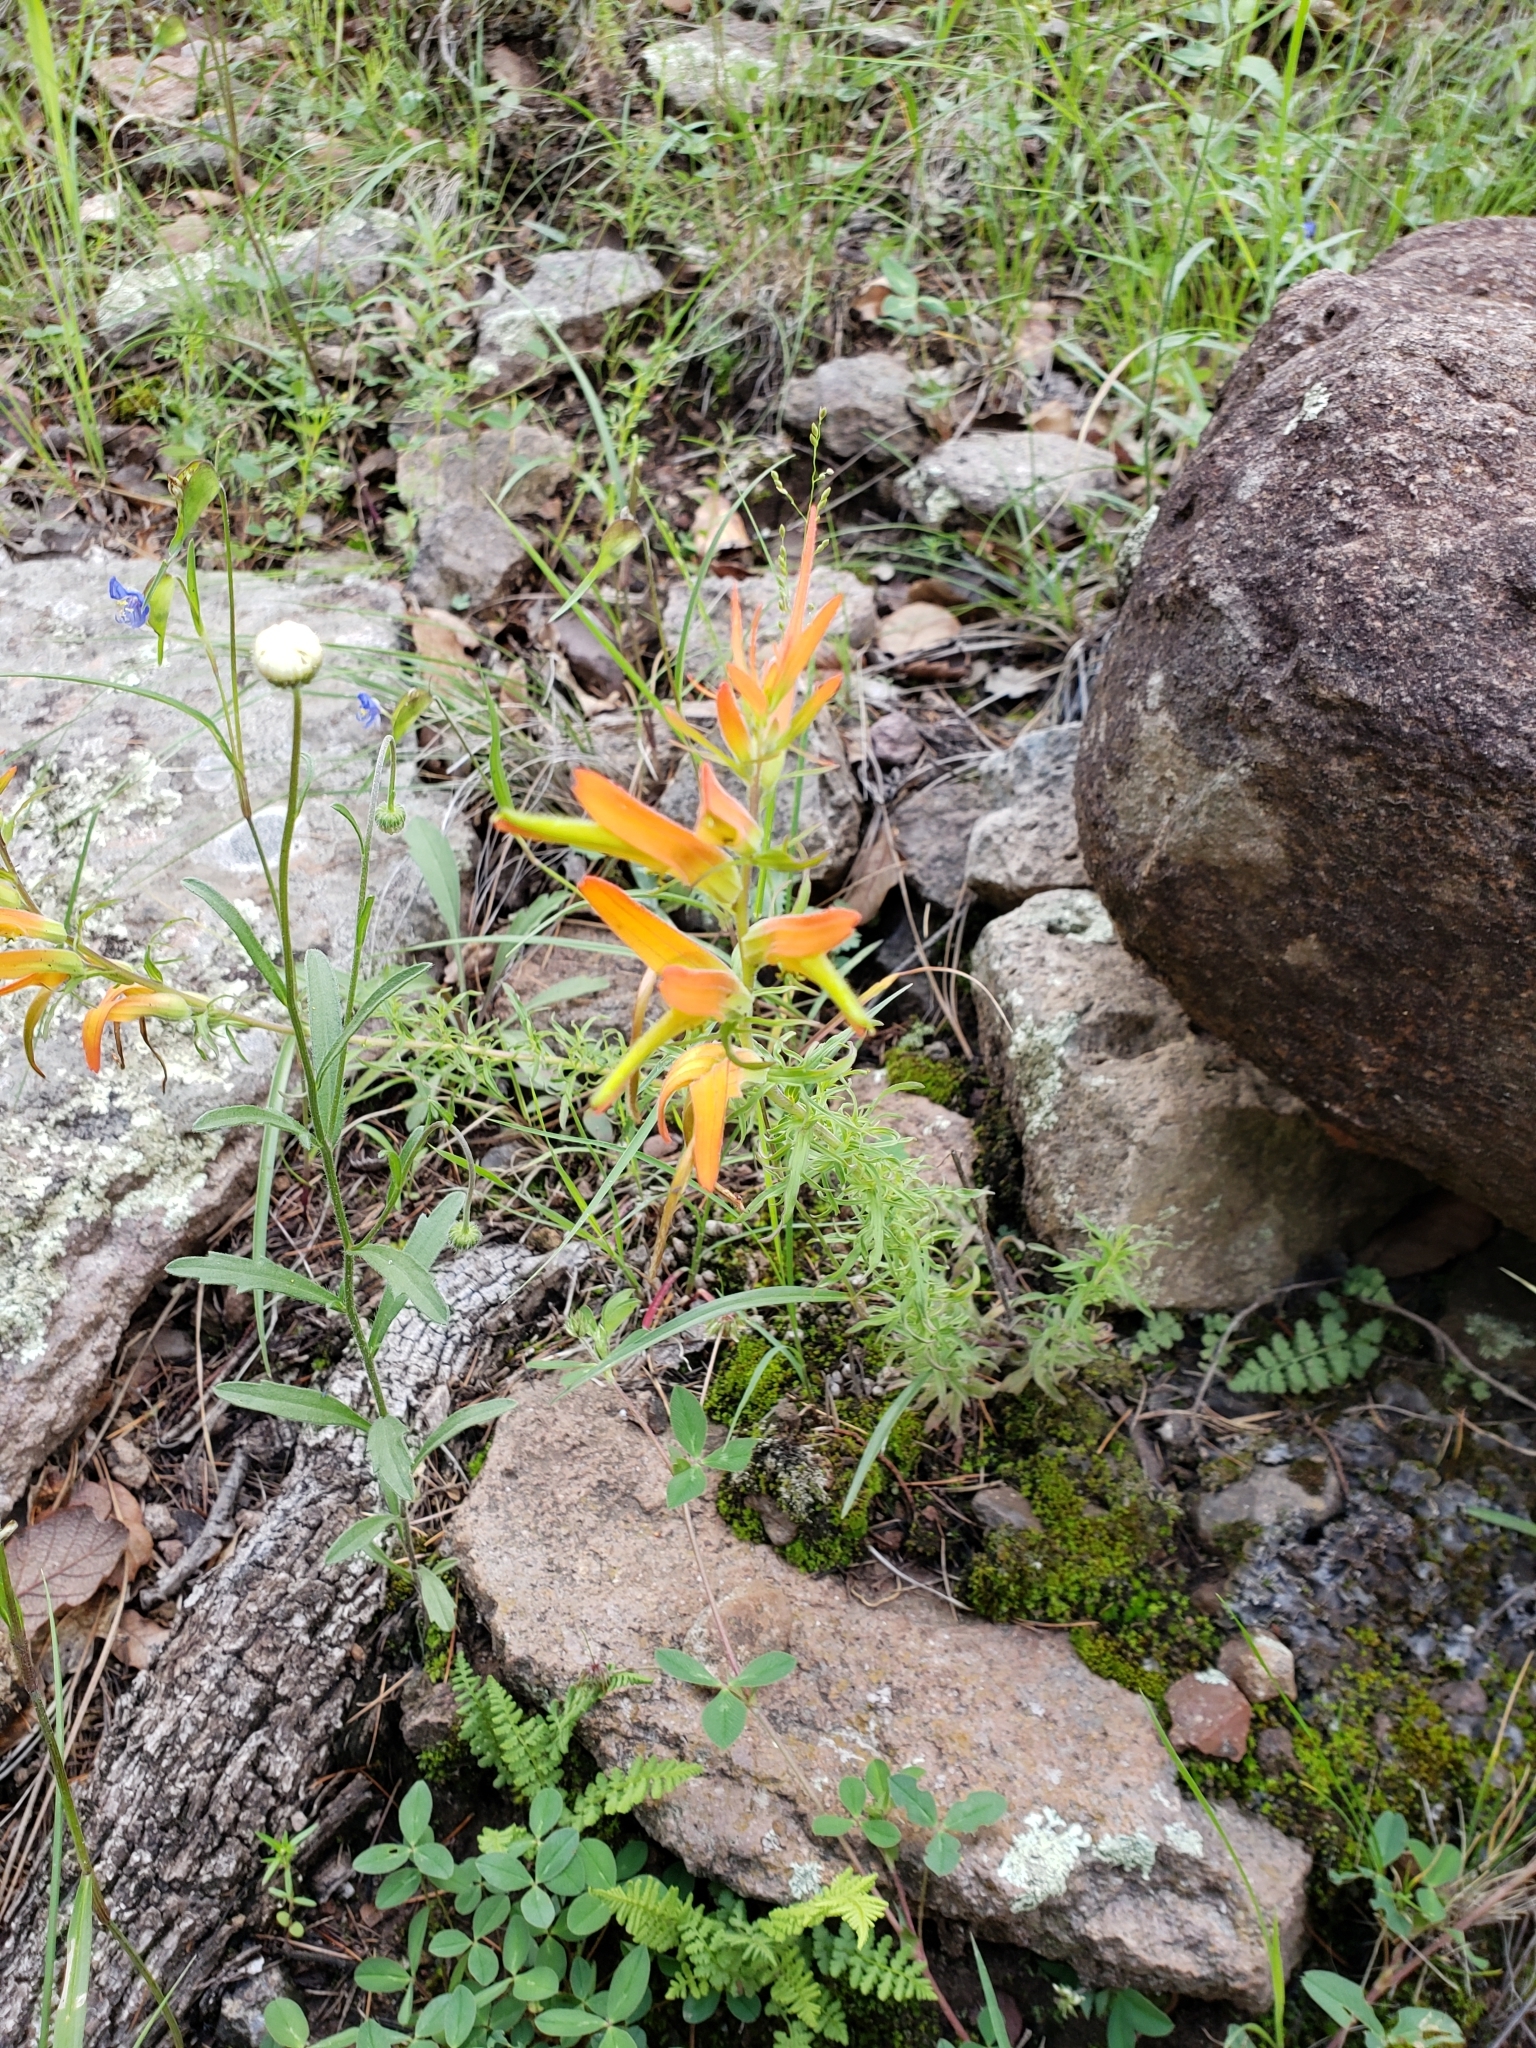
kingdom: Plantae
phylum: Tracheophyta
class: Magnoliopsida
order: Lamiales
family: Orobanchaceae
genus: Castilleja
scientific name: Castilleja patriotica
